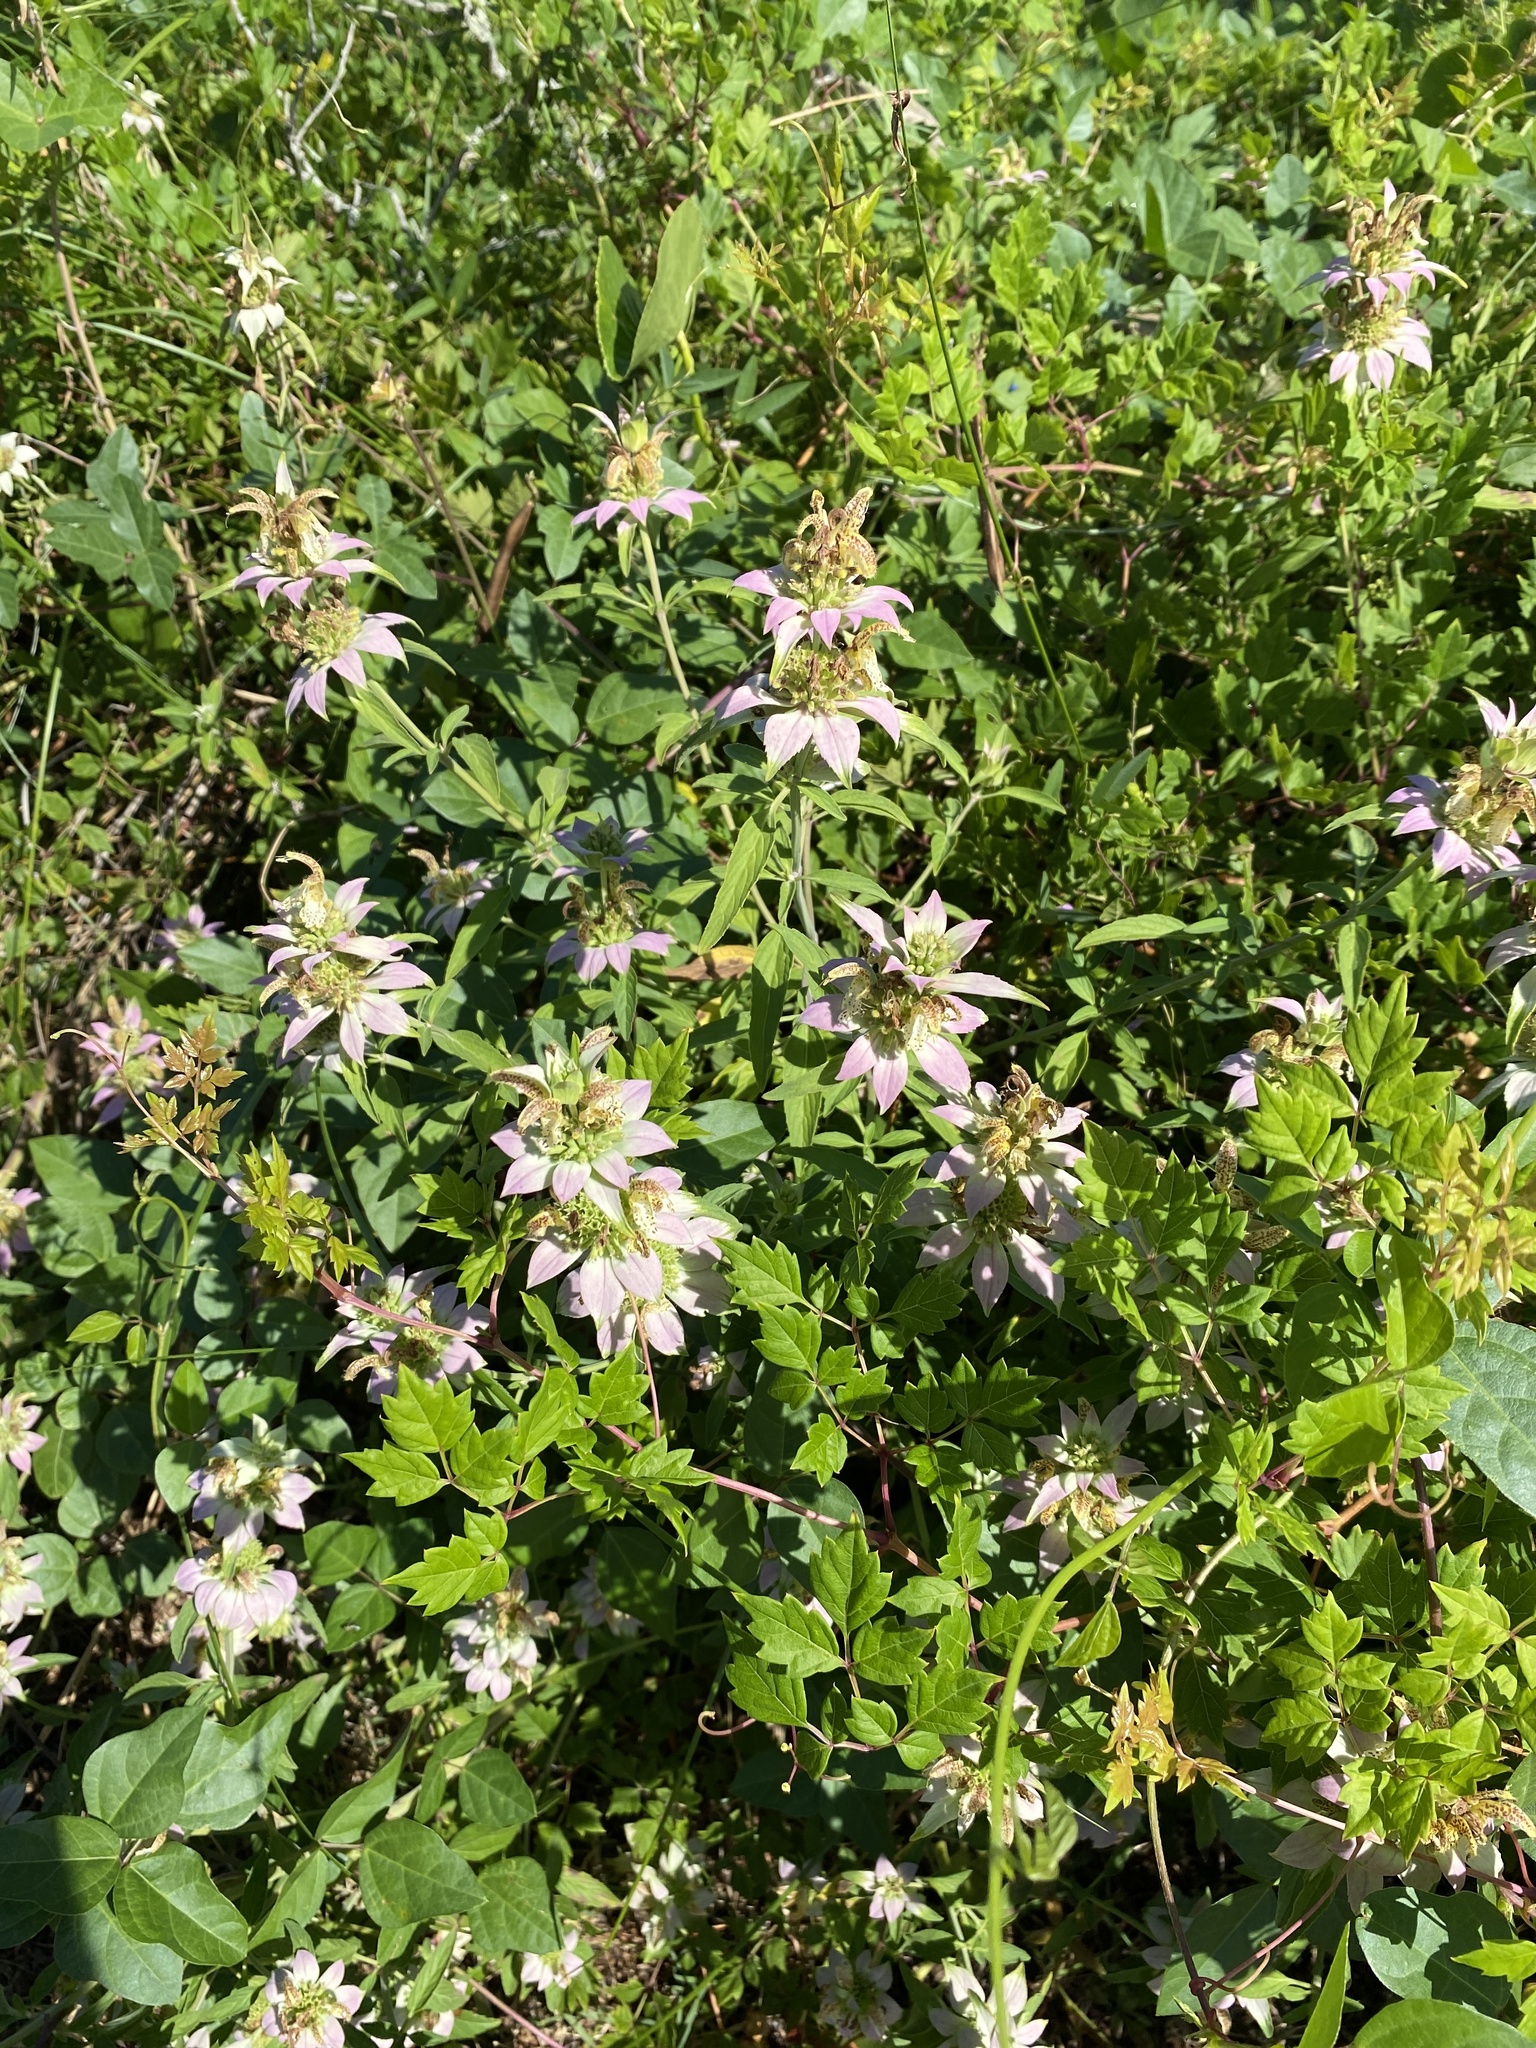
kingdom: Plantae
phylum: Tracheophyta
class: Magnoliopsida
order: Lamiales
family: Lamiaceae
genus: Monarda
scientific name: Monarda punctata
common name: Dotted monarda
